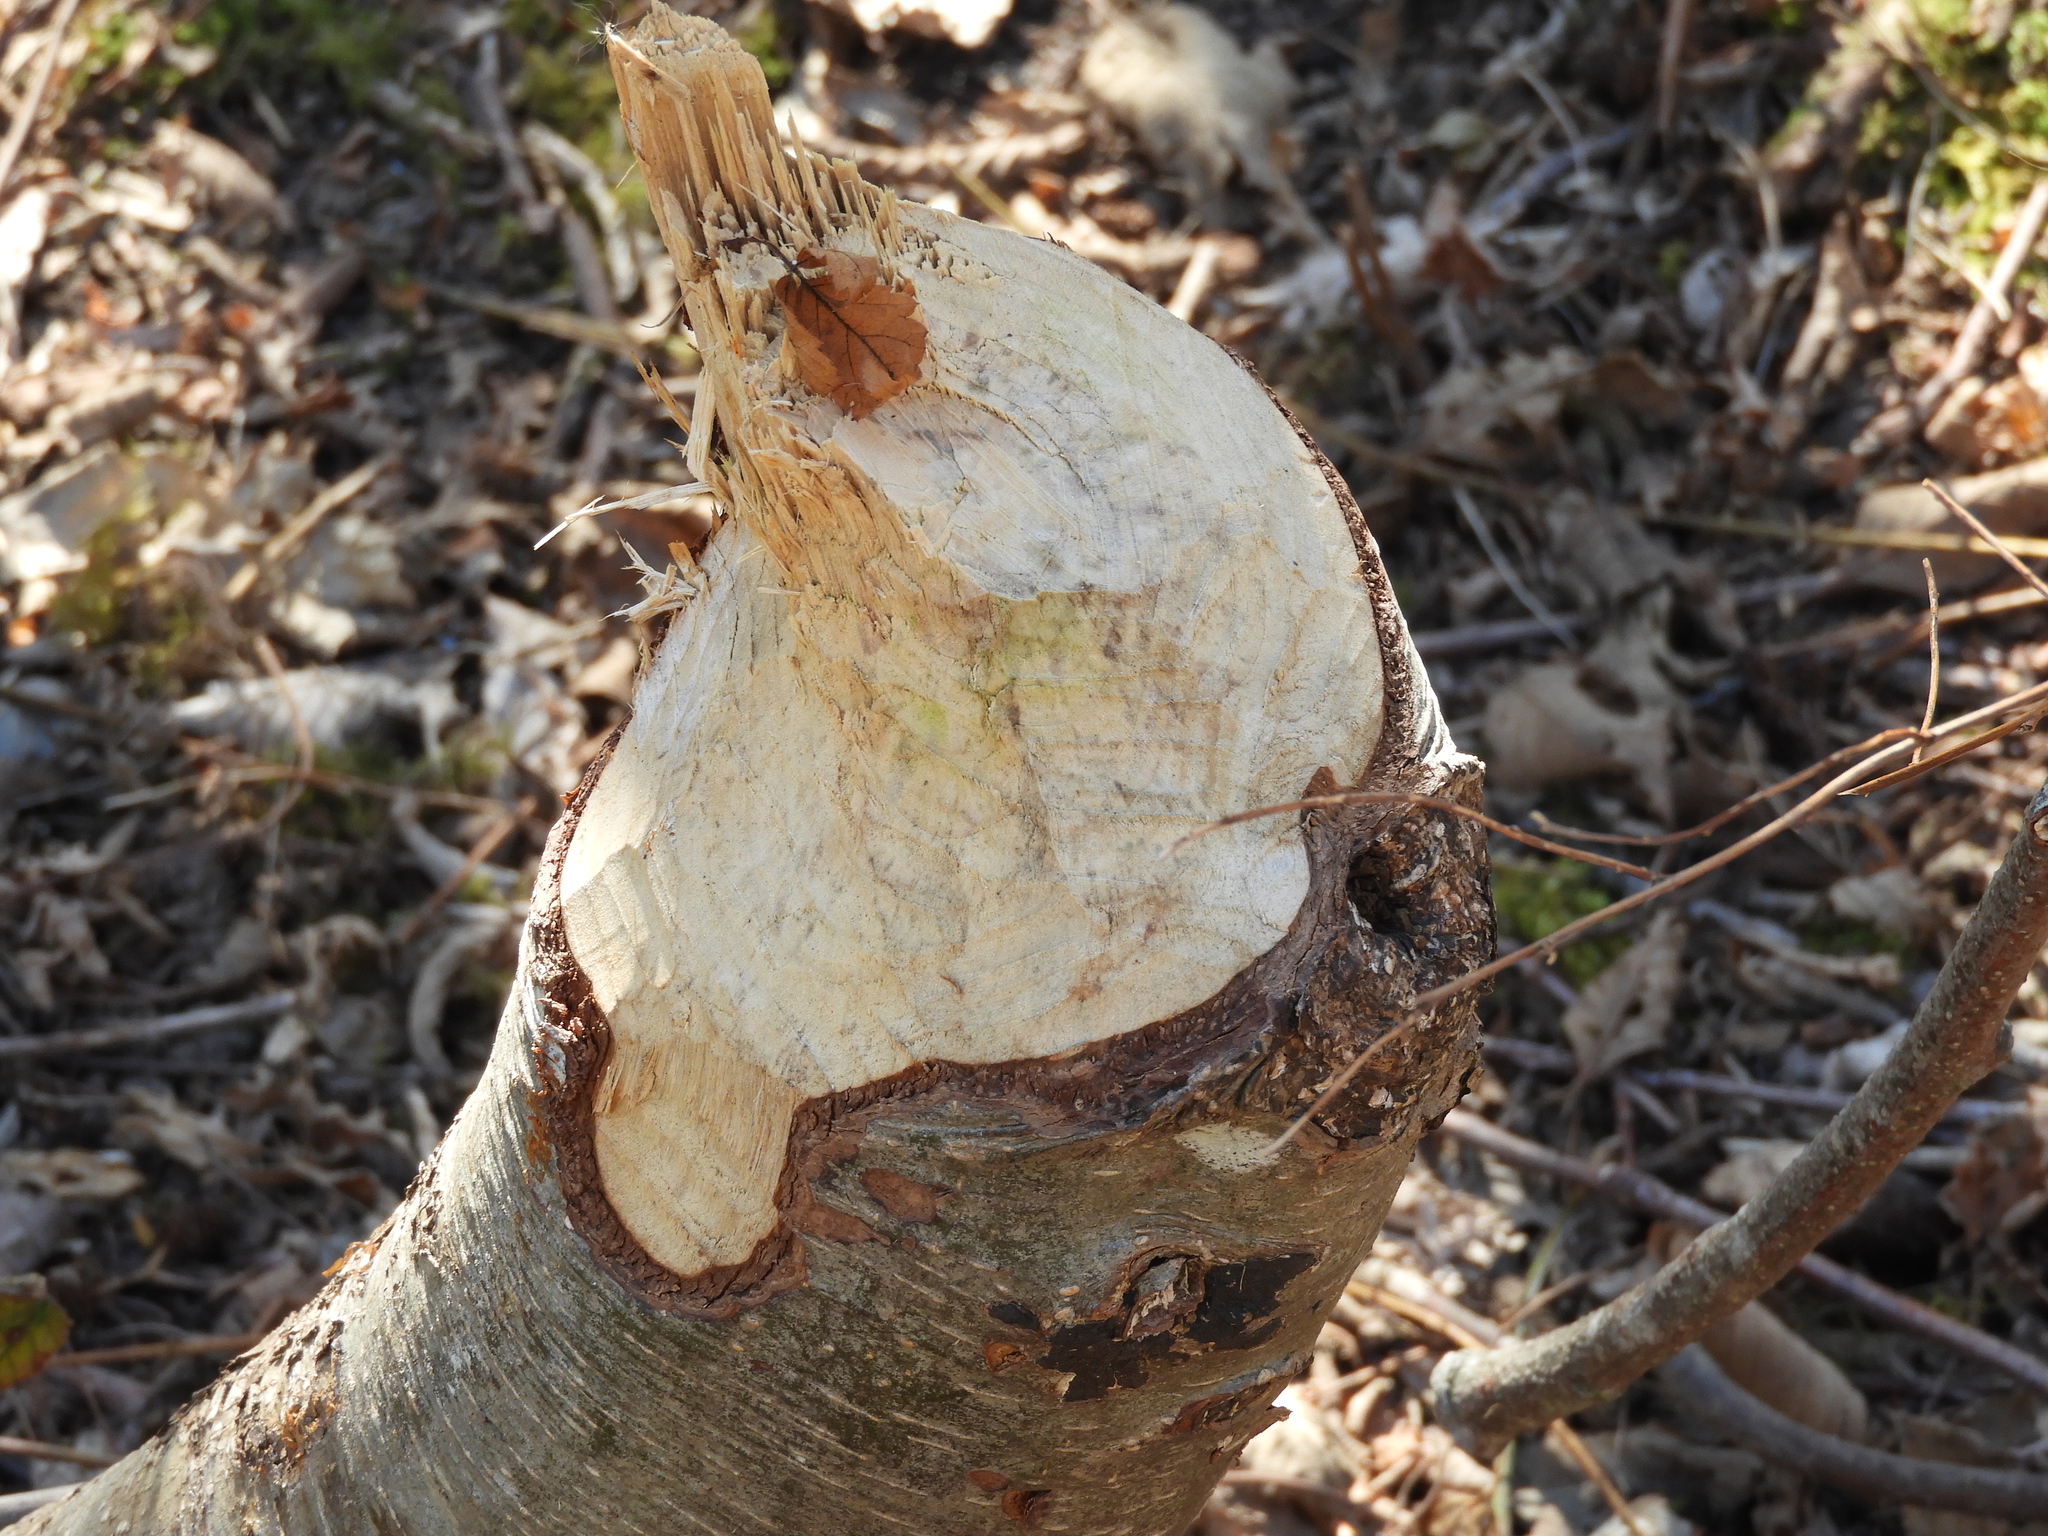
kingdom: Animalia
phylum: Chordata
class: Mammalia
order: Rodentia
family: Castoridae
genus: Castor
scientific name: Castor canadensis
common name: American beaver
